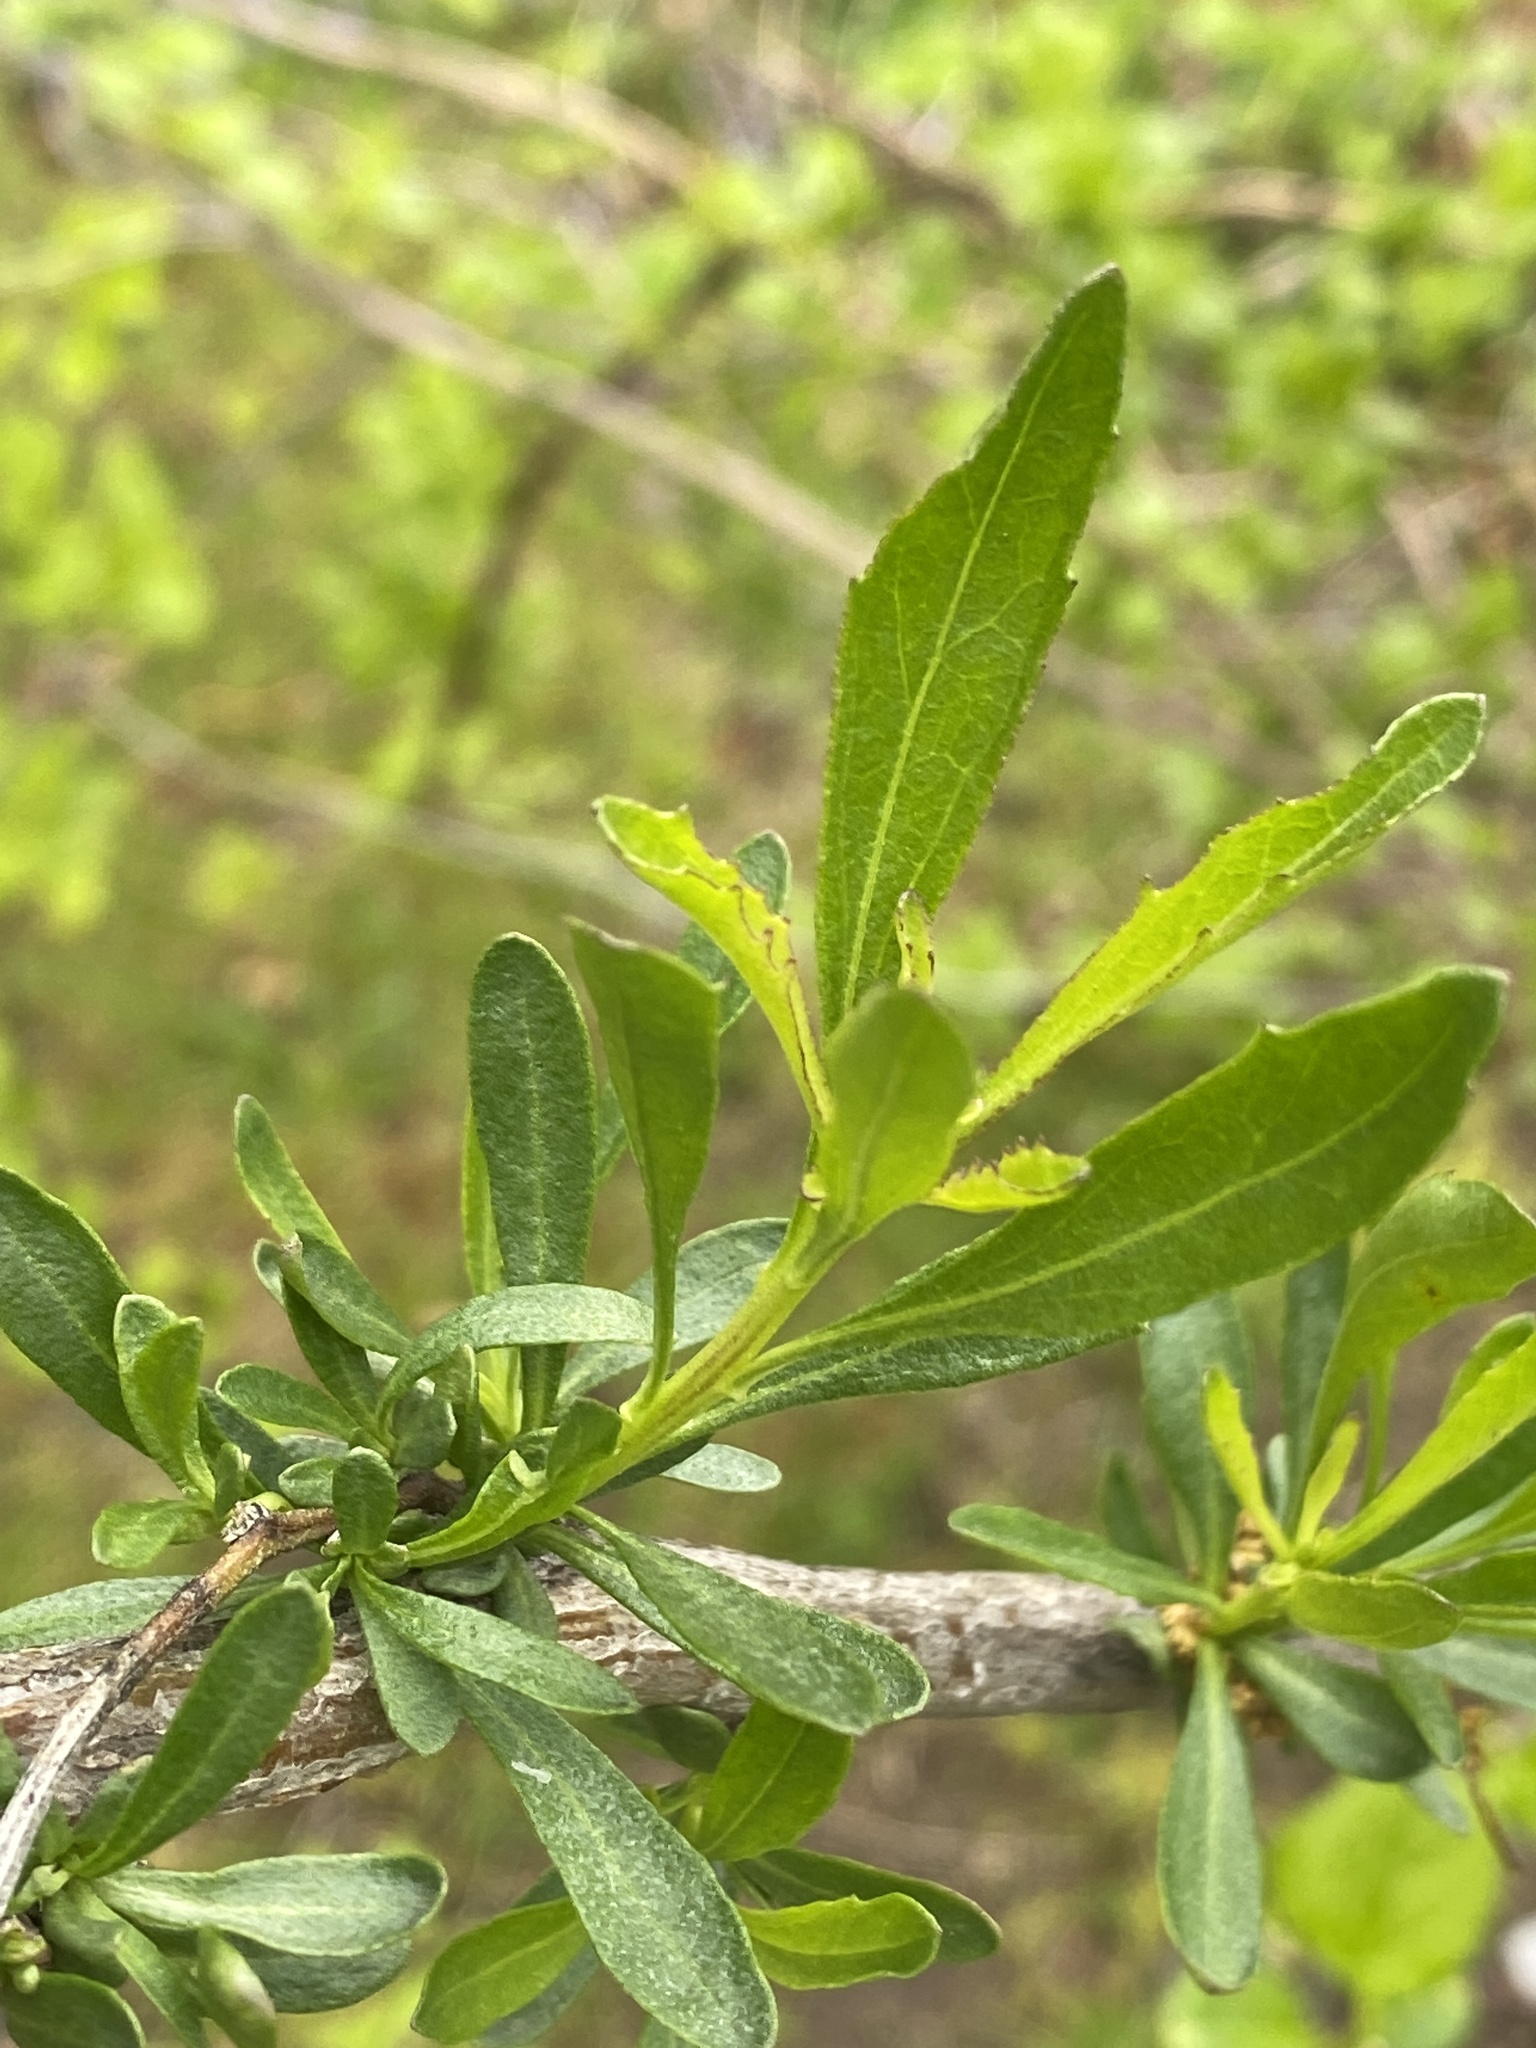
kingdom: Plantae
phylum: Tracheophyta
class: Magnoliopsida
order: Asterales
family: Asteraceae
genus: Baccharis
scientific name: Baccharis halimifolia
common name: Eastern baccharis
